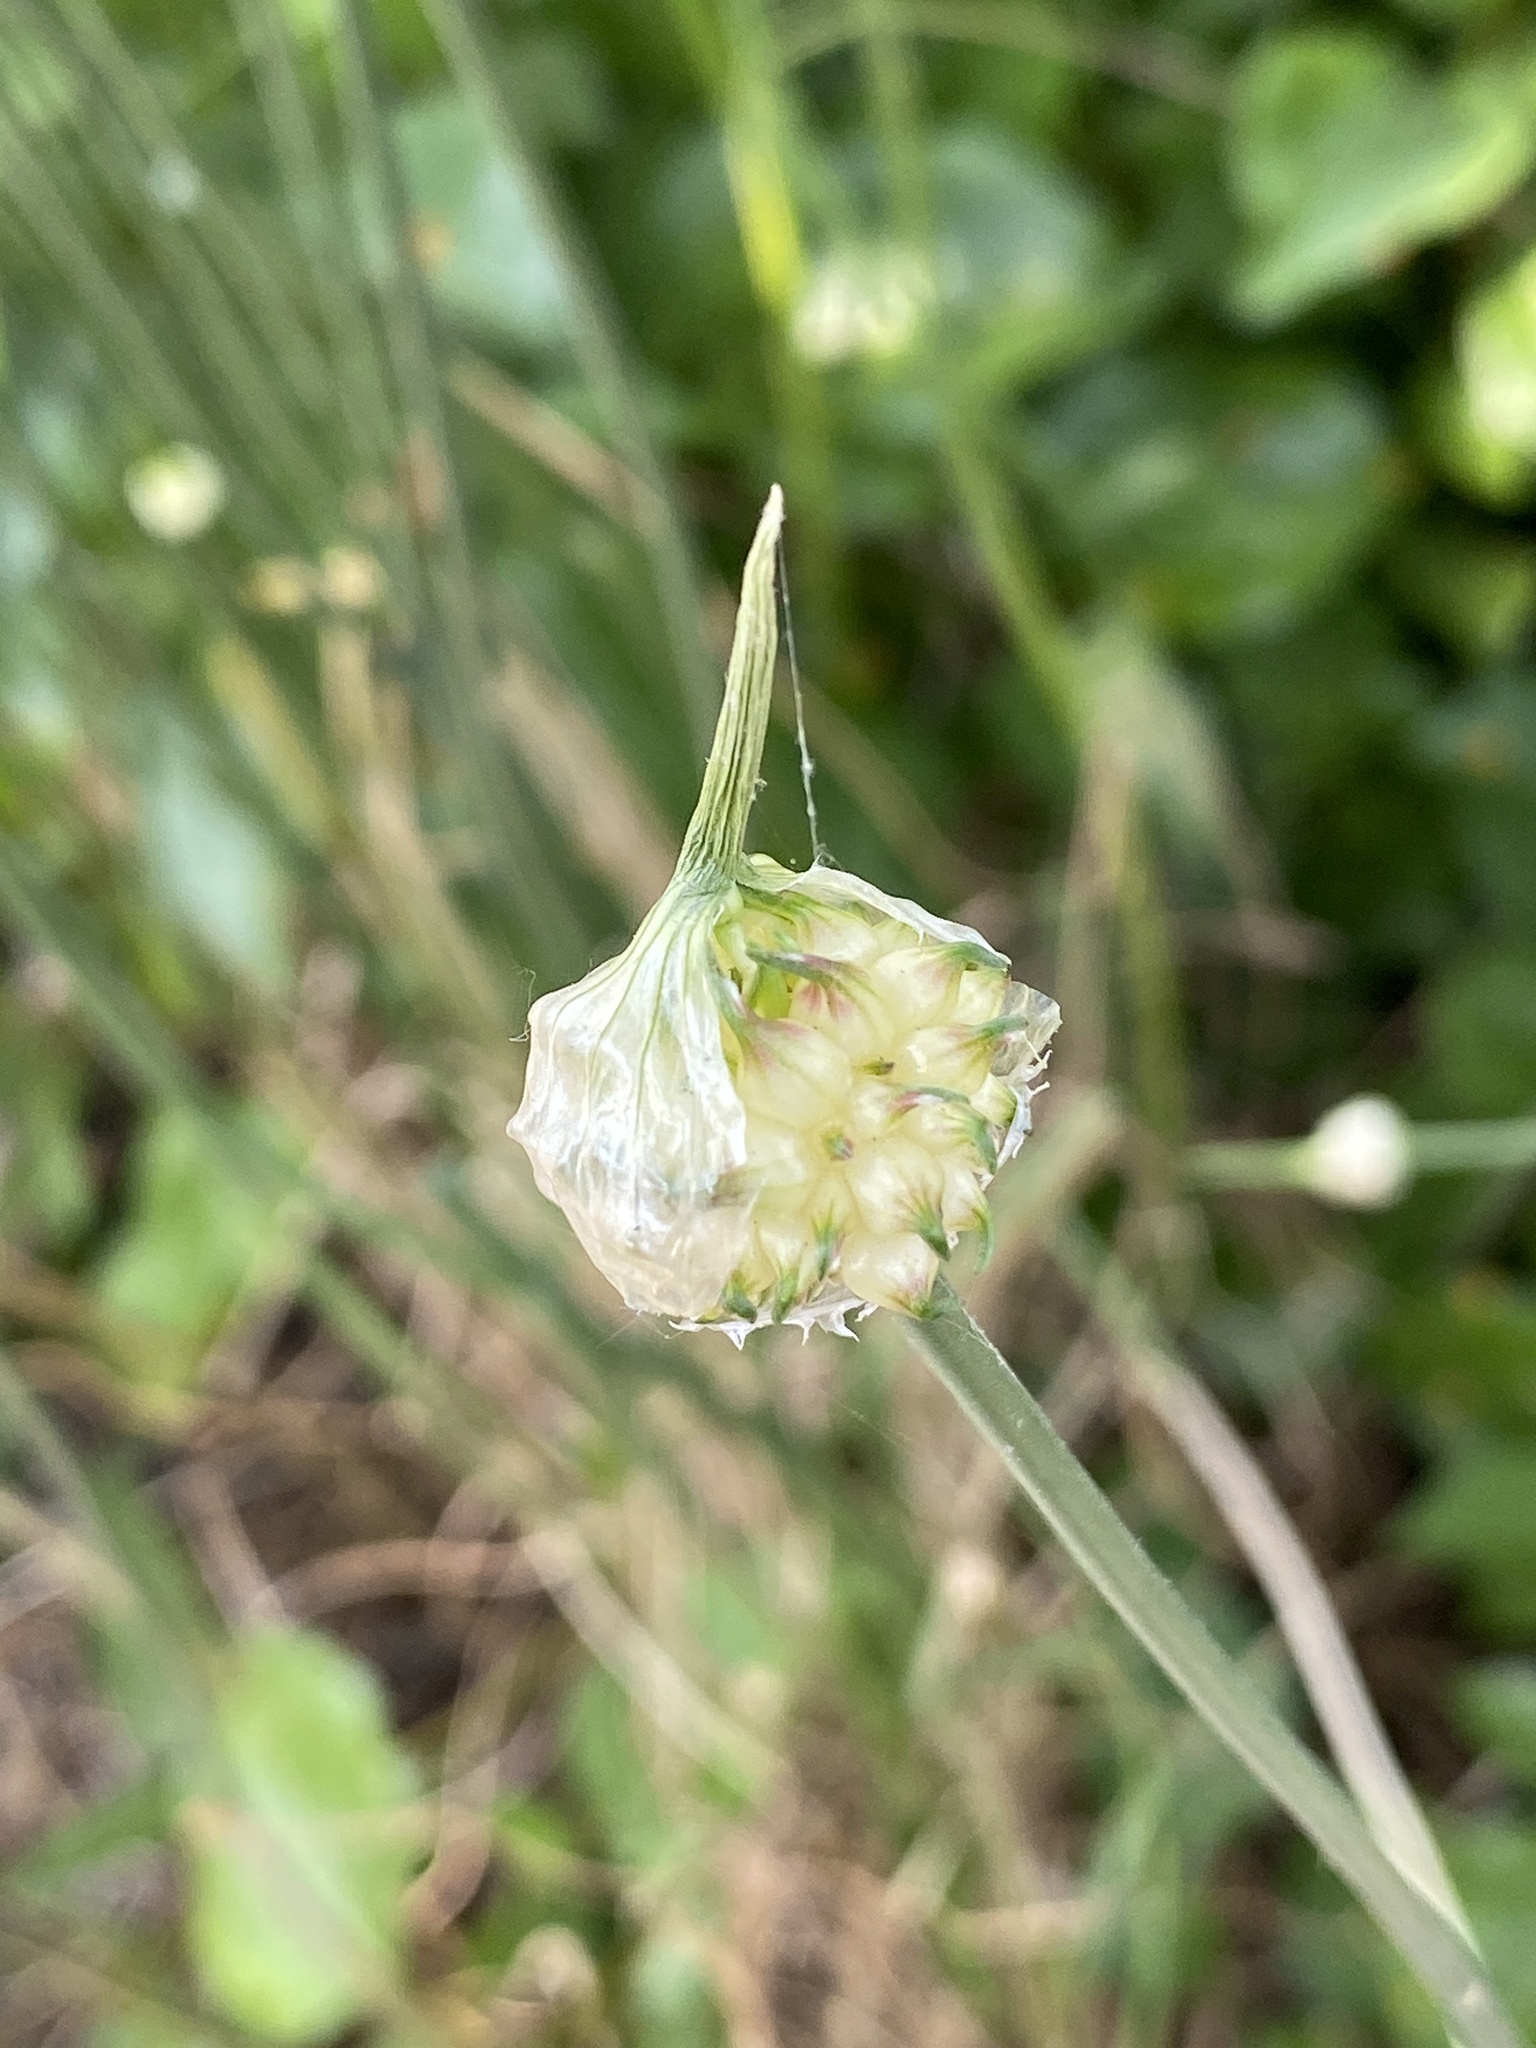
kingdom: Plantae
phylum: Tracheophyta
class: Liliopsida
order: Asparagales
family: Amaryllidaceae
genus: Allium
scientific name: Allium vineale
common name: Crow garlic
